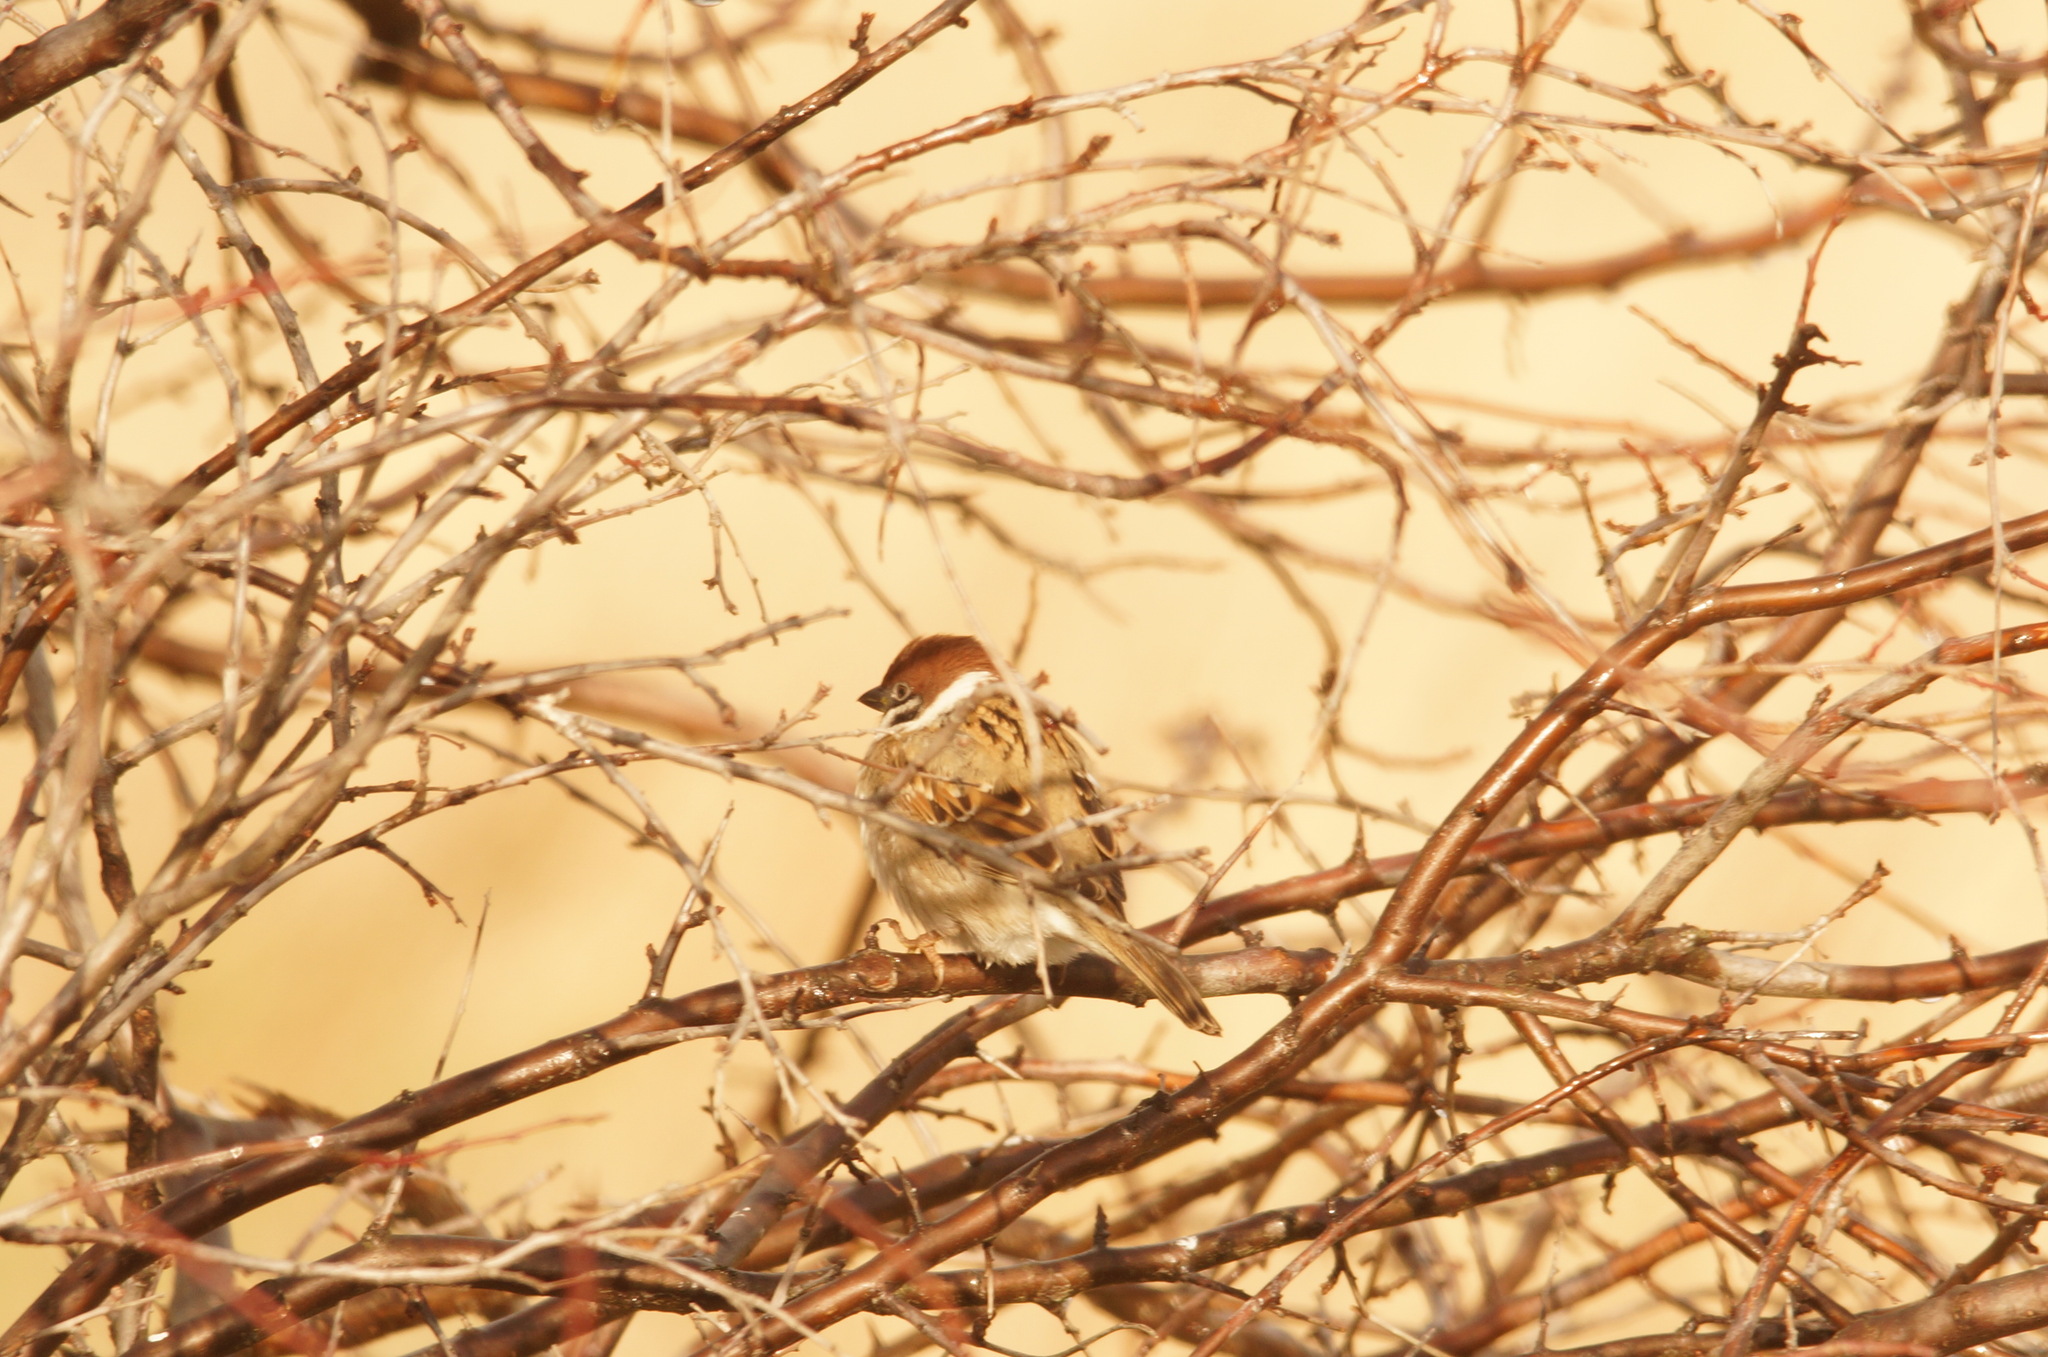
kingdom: Animalia
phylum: Chordata
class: Aves
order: Passeriformes
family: Passeridae
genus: Passer
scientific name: Passer montanus
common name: Eurasian tree sparrow
